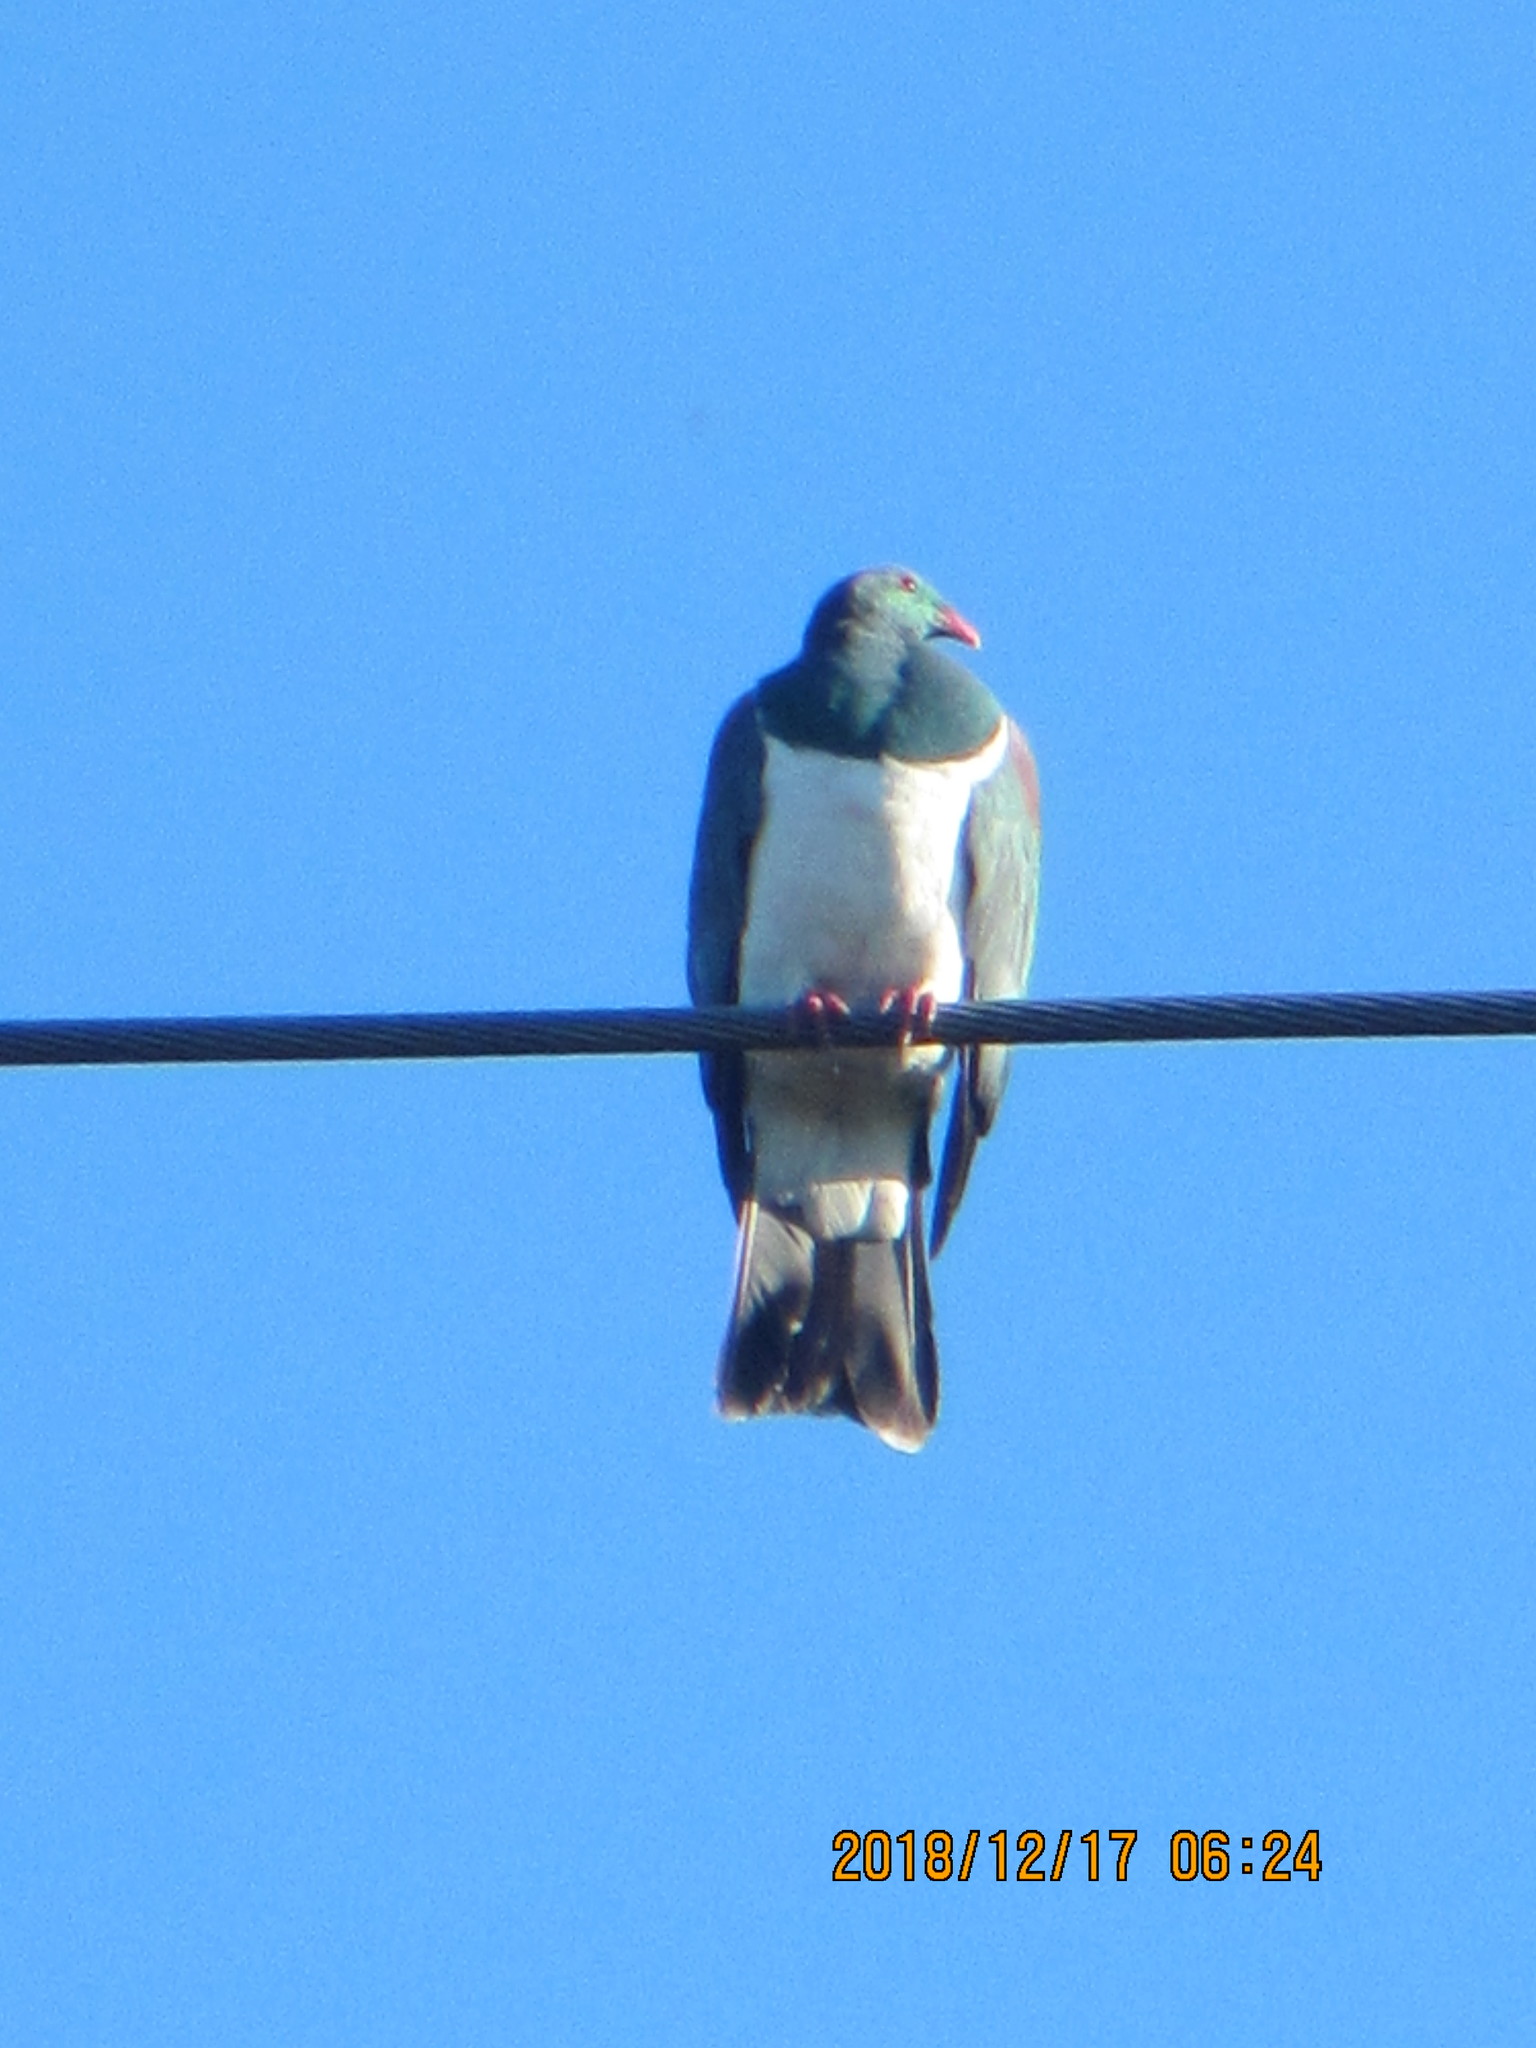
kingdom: Animalia
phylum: Chordata
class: Aves
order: Columbiformes
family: Columbidae
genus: Hemiphaga
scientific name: Hemiphaga novaeseelandiae
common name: New zealand pigeon
